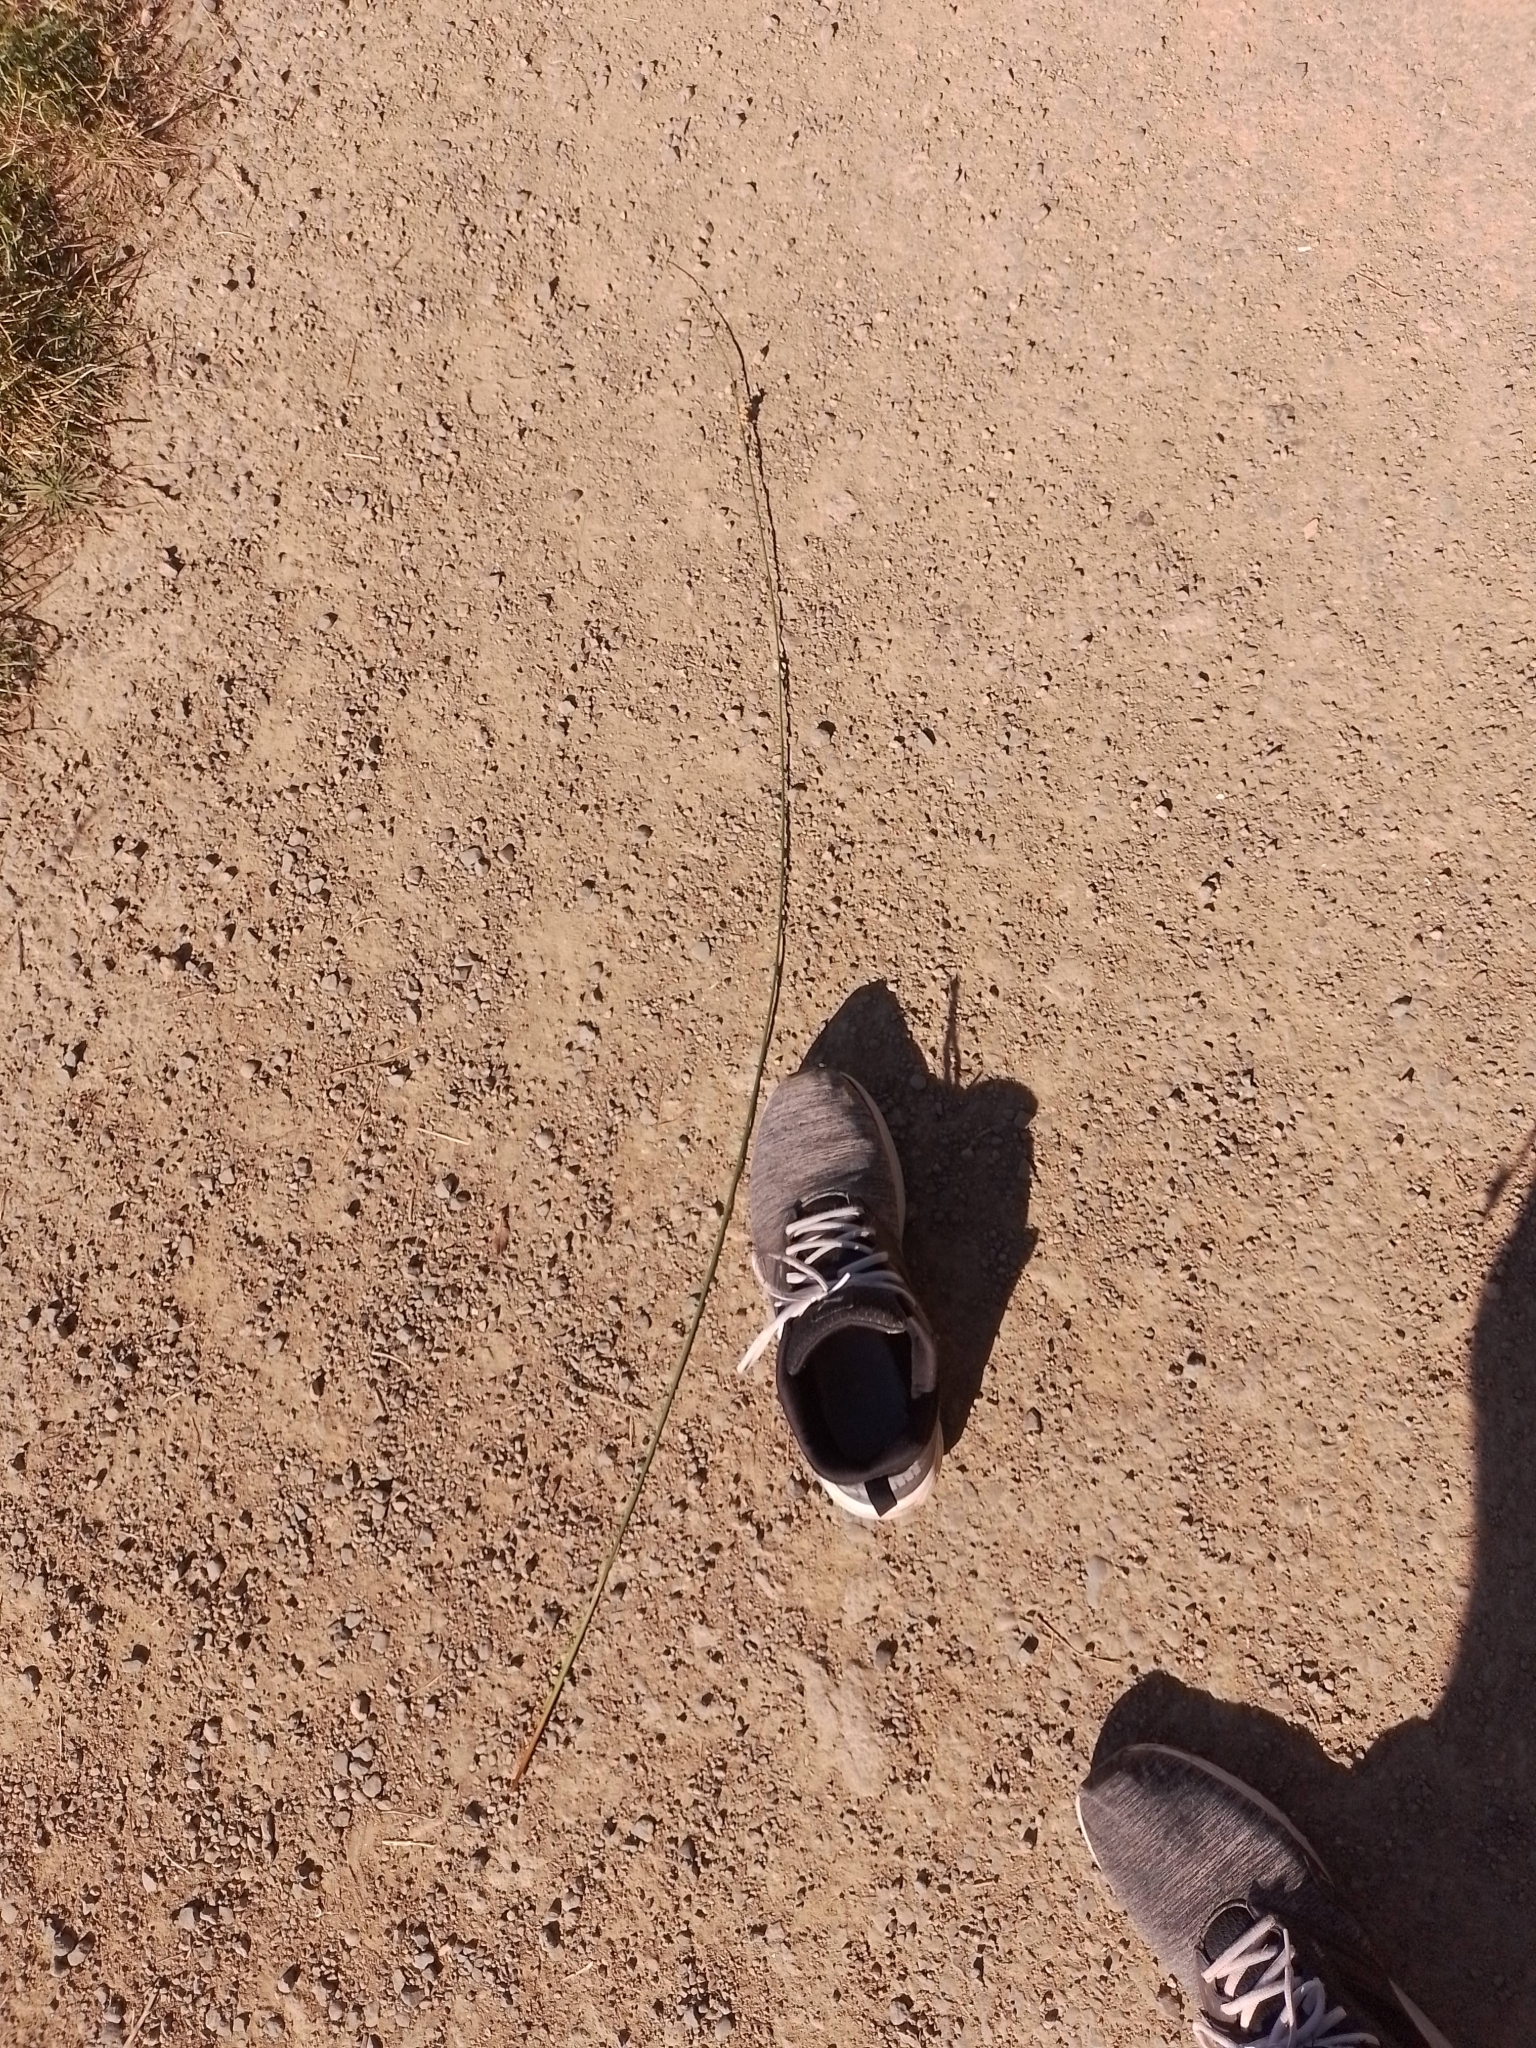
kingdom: Plantae
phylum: Tracheophyta
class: Liliopsida
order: Poales
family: Juncaceae
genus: Juncus
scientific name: Juncus australis
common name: Austral rush
